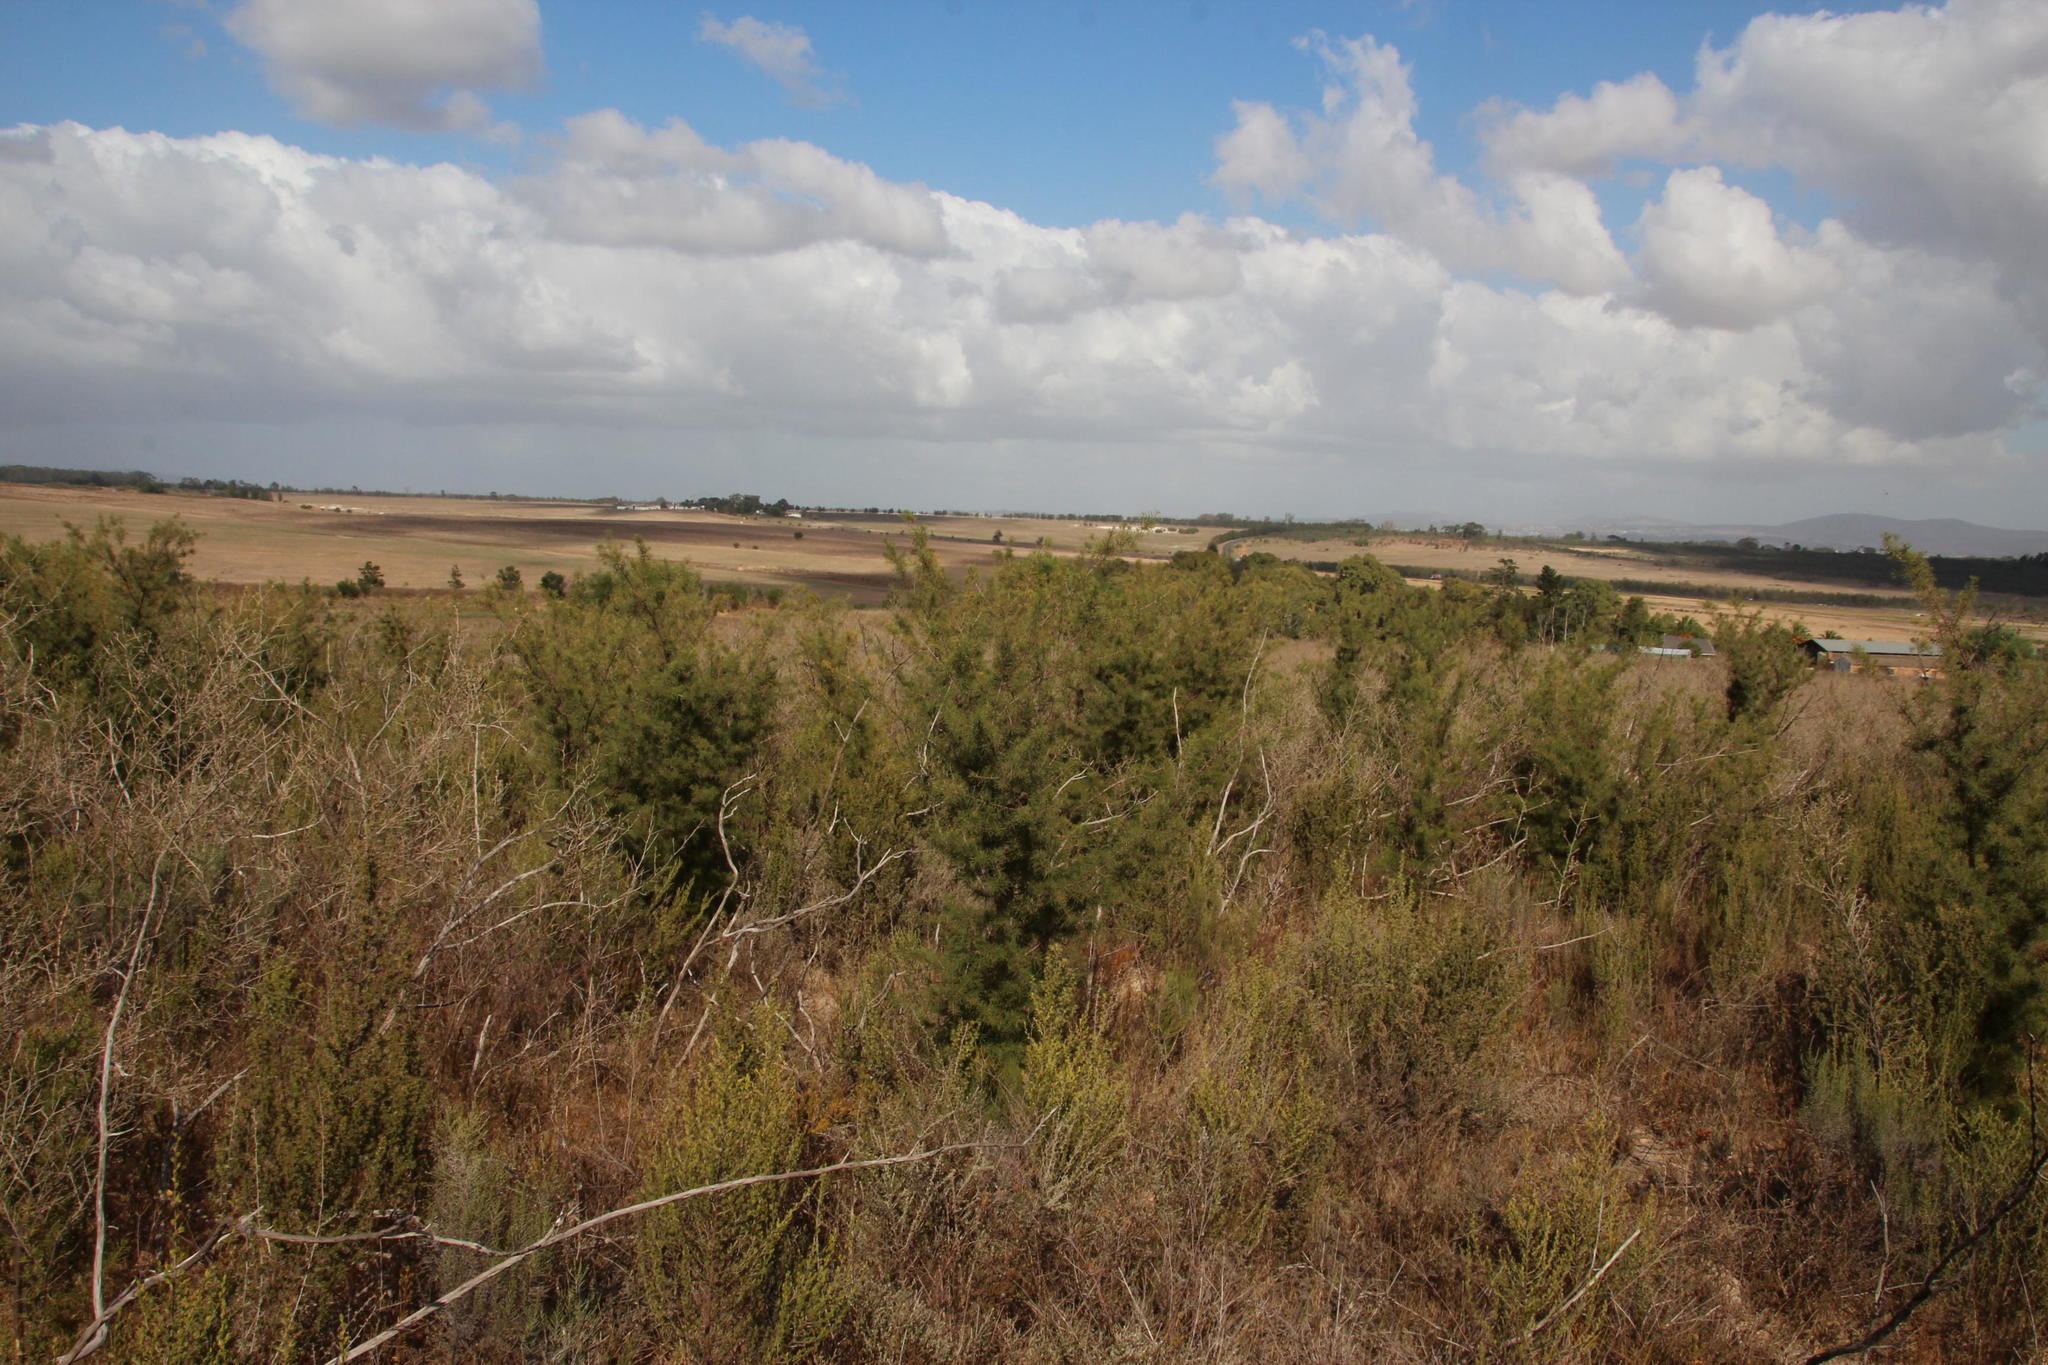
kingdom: Plantae
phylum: Tracheophyta
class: Magnoliopsida
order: Proteales
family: Proteaceae
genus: Hakea
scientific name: Hakea sericea
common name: Needle bush
